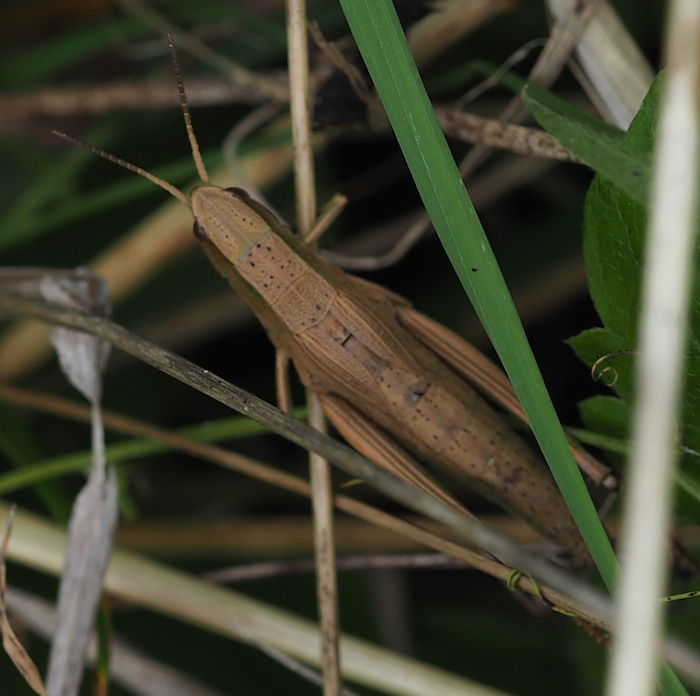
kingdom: Animalia
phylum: Arthropoda
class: Insecta
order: Orthoptera
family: Acrididae
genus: Chrysochraon
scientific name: Chrysochraon dispar
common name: Large gold grasshopper
